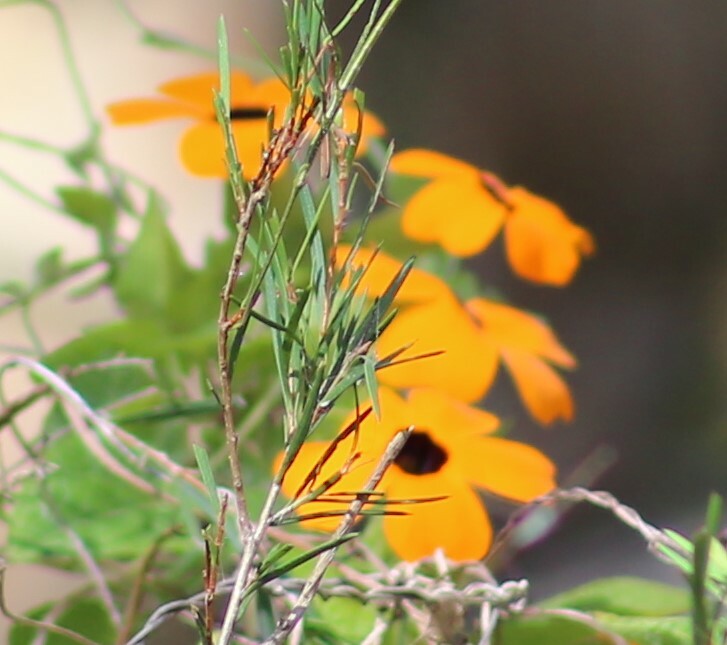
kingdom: Plantae
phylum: Tracheophyta
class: Magnoliopsida
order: Lamiales
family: Acanthaceae
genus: Thunbergia
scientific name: Thunbergia alata
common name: Blackeyed susan vine
